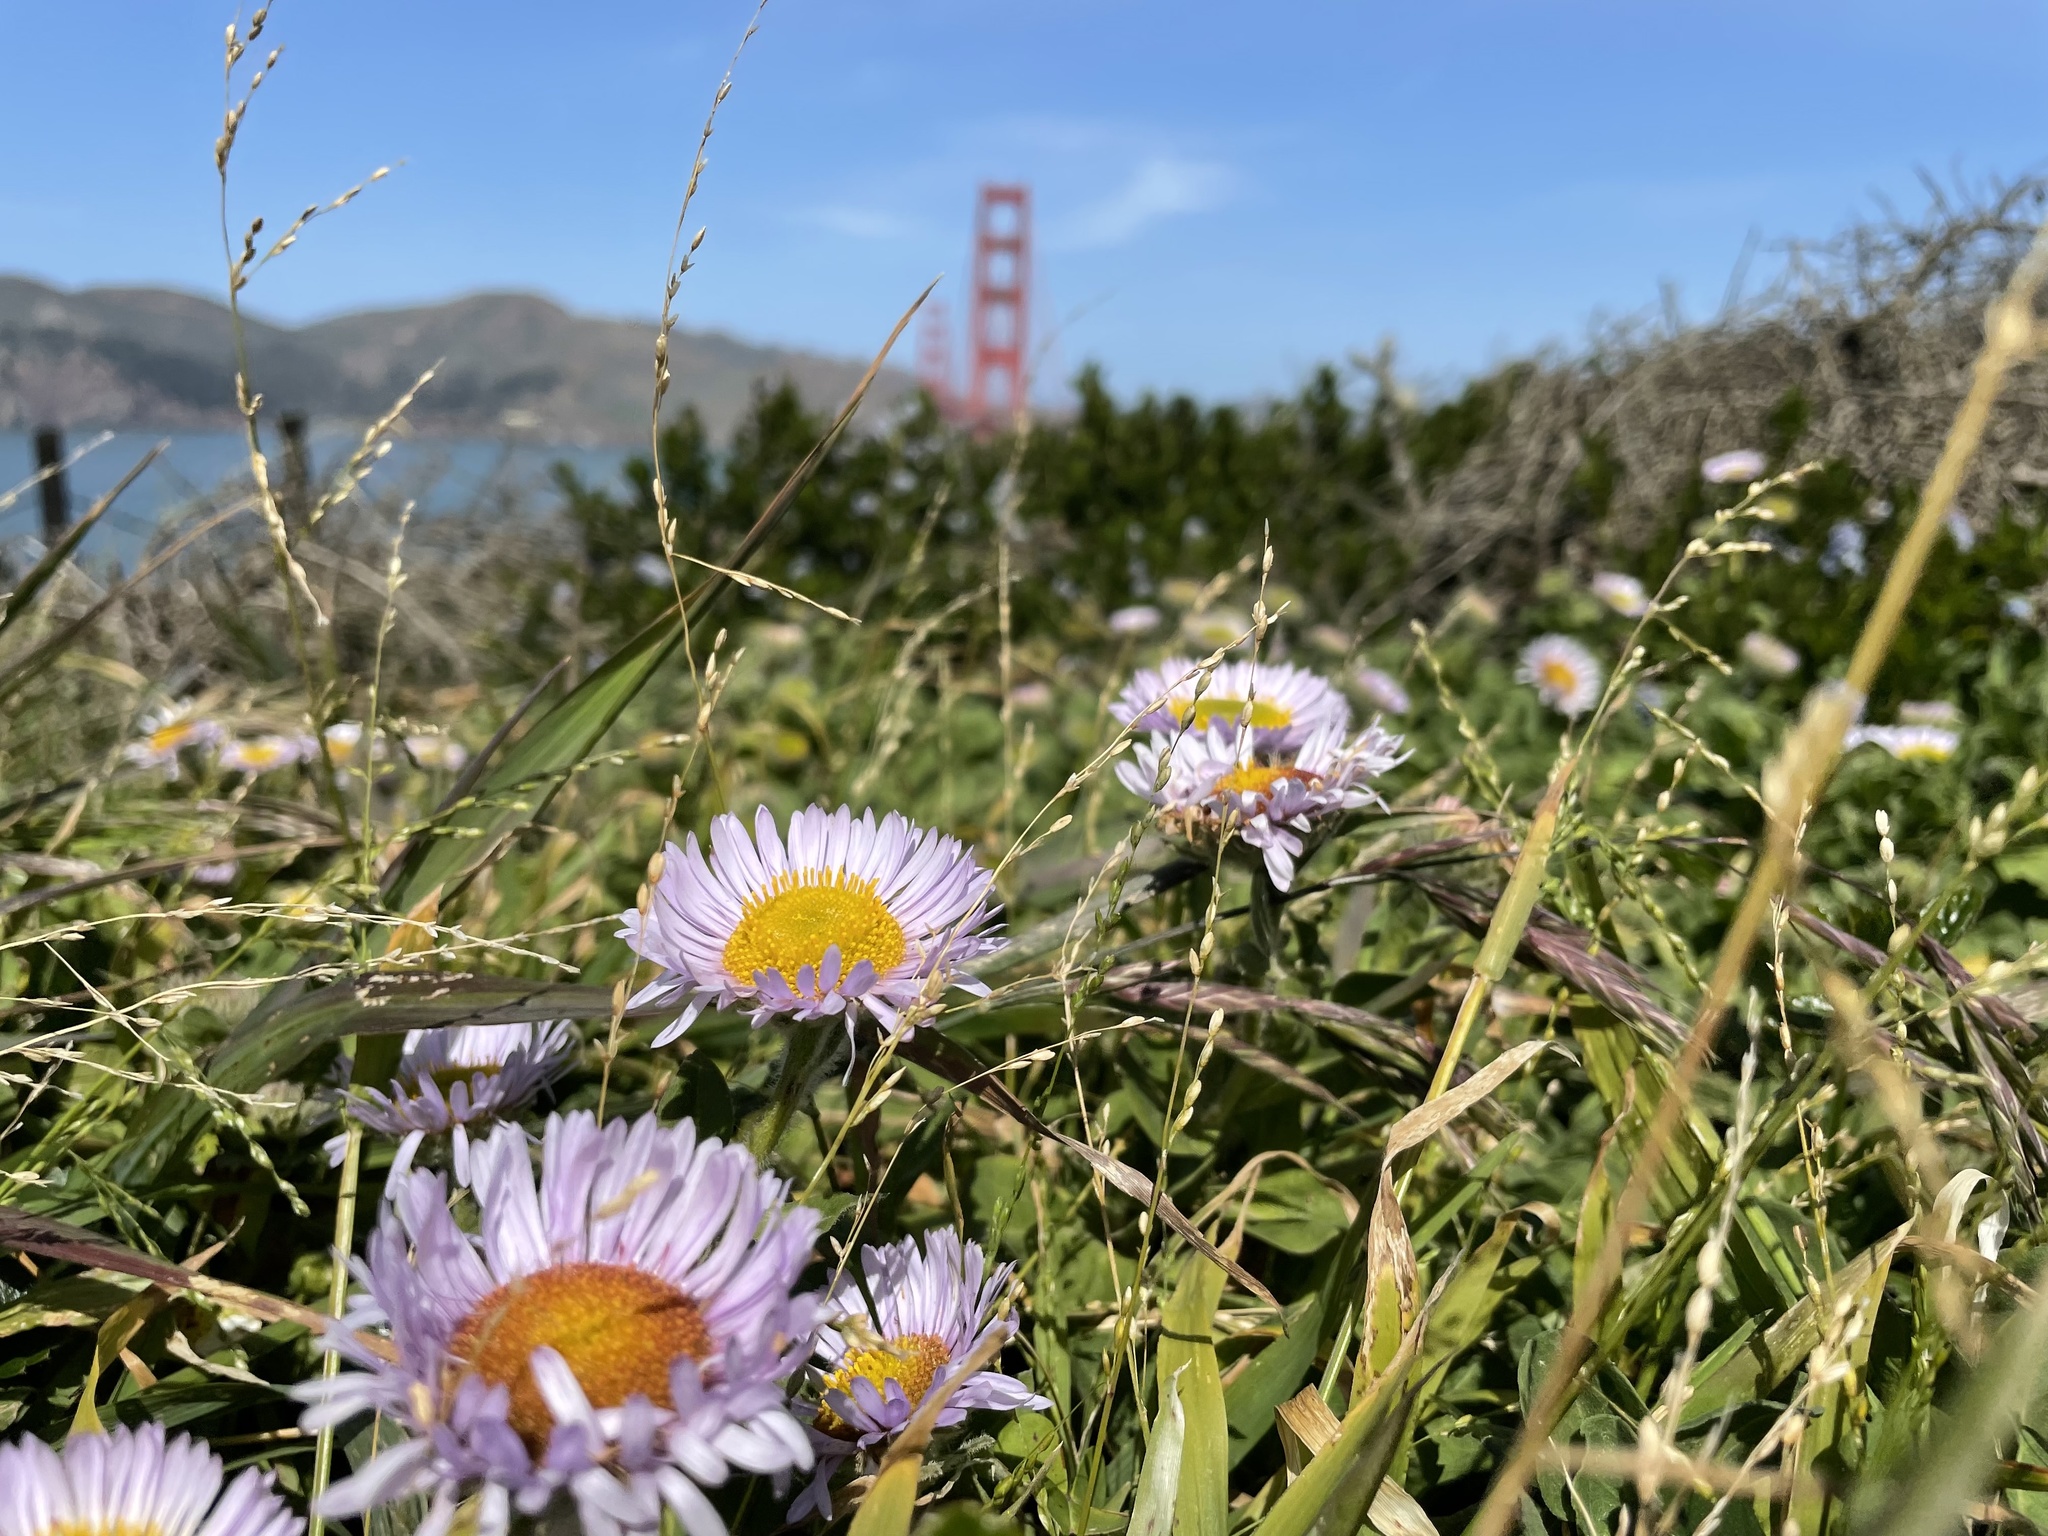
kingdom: Plantae
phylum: Tracheophyta
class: Magnoliopsida
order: Asterales
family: Asteraceae
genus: Erigeron
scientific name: Erigeron glaucus
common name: Seaside daisy
